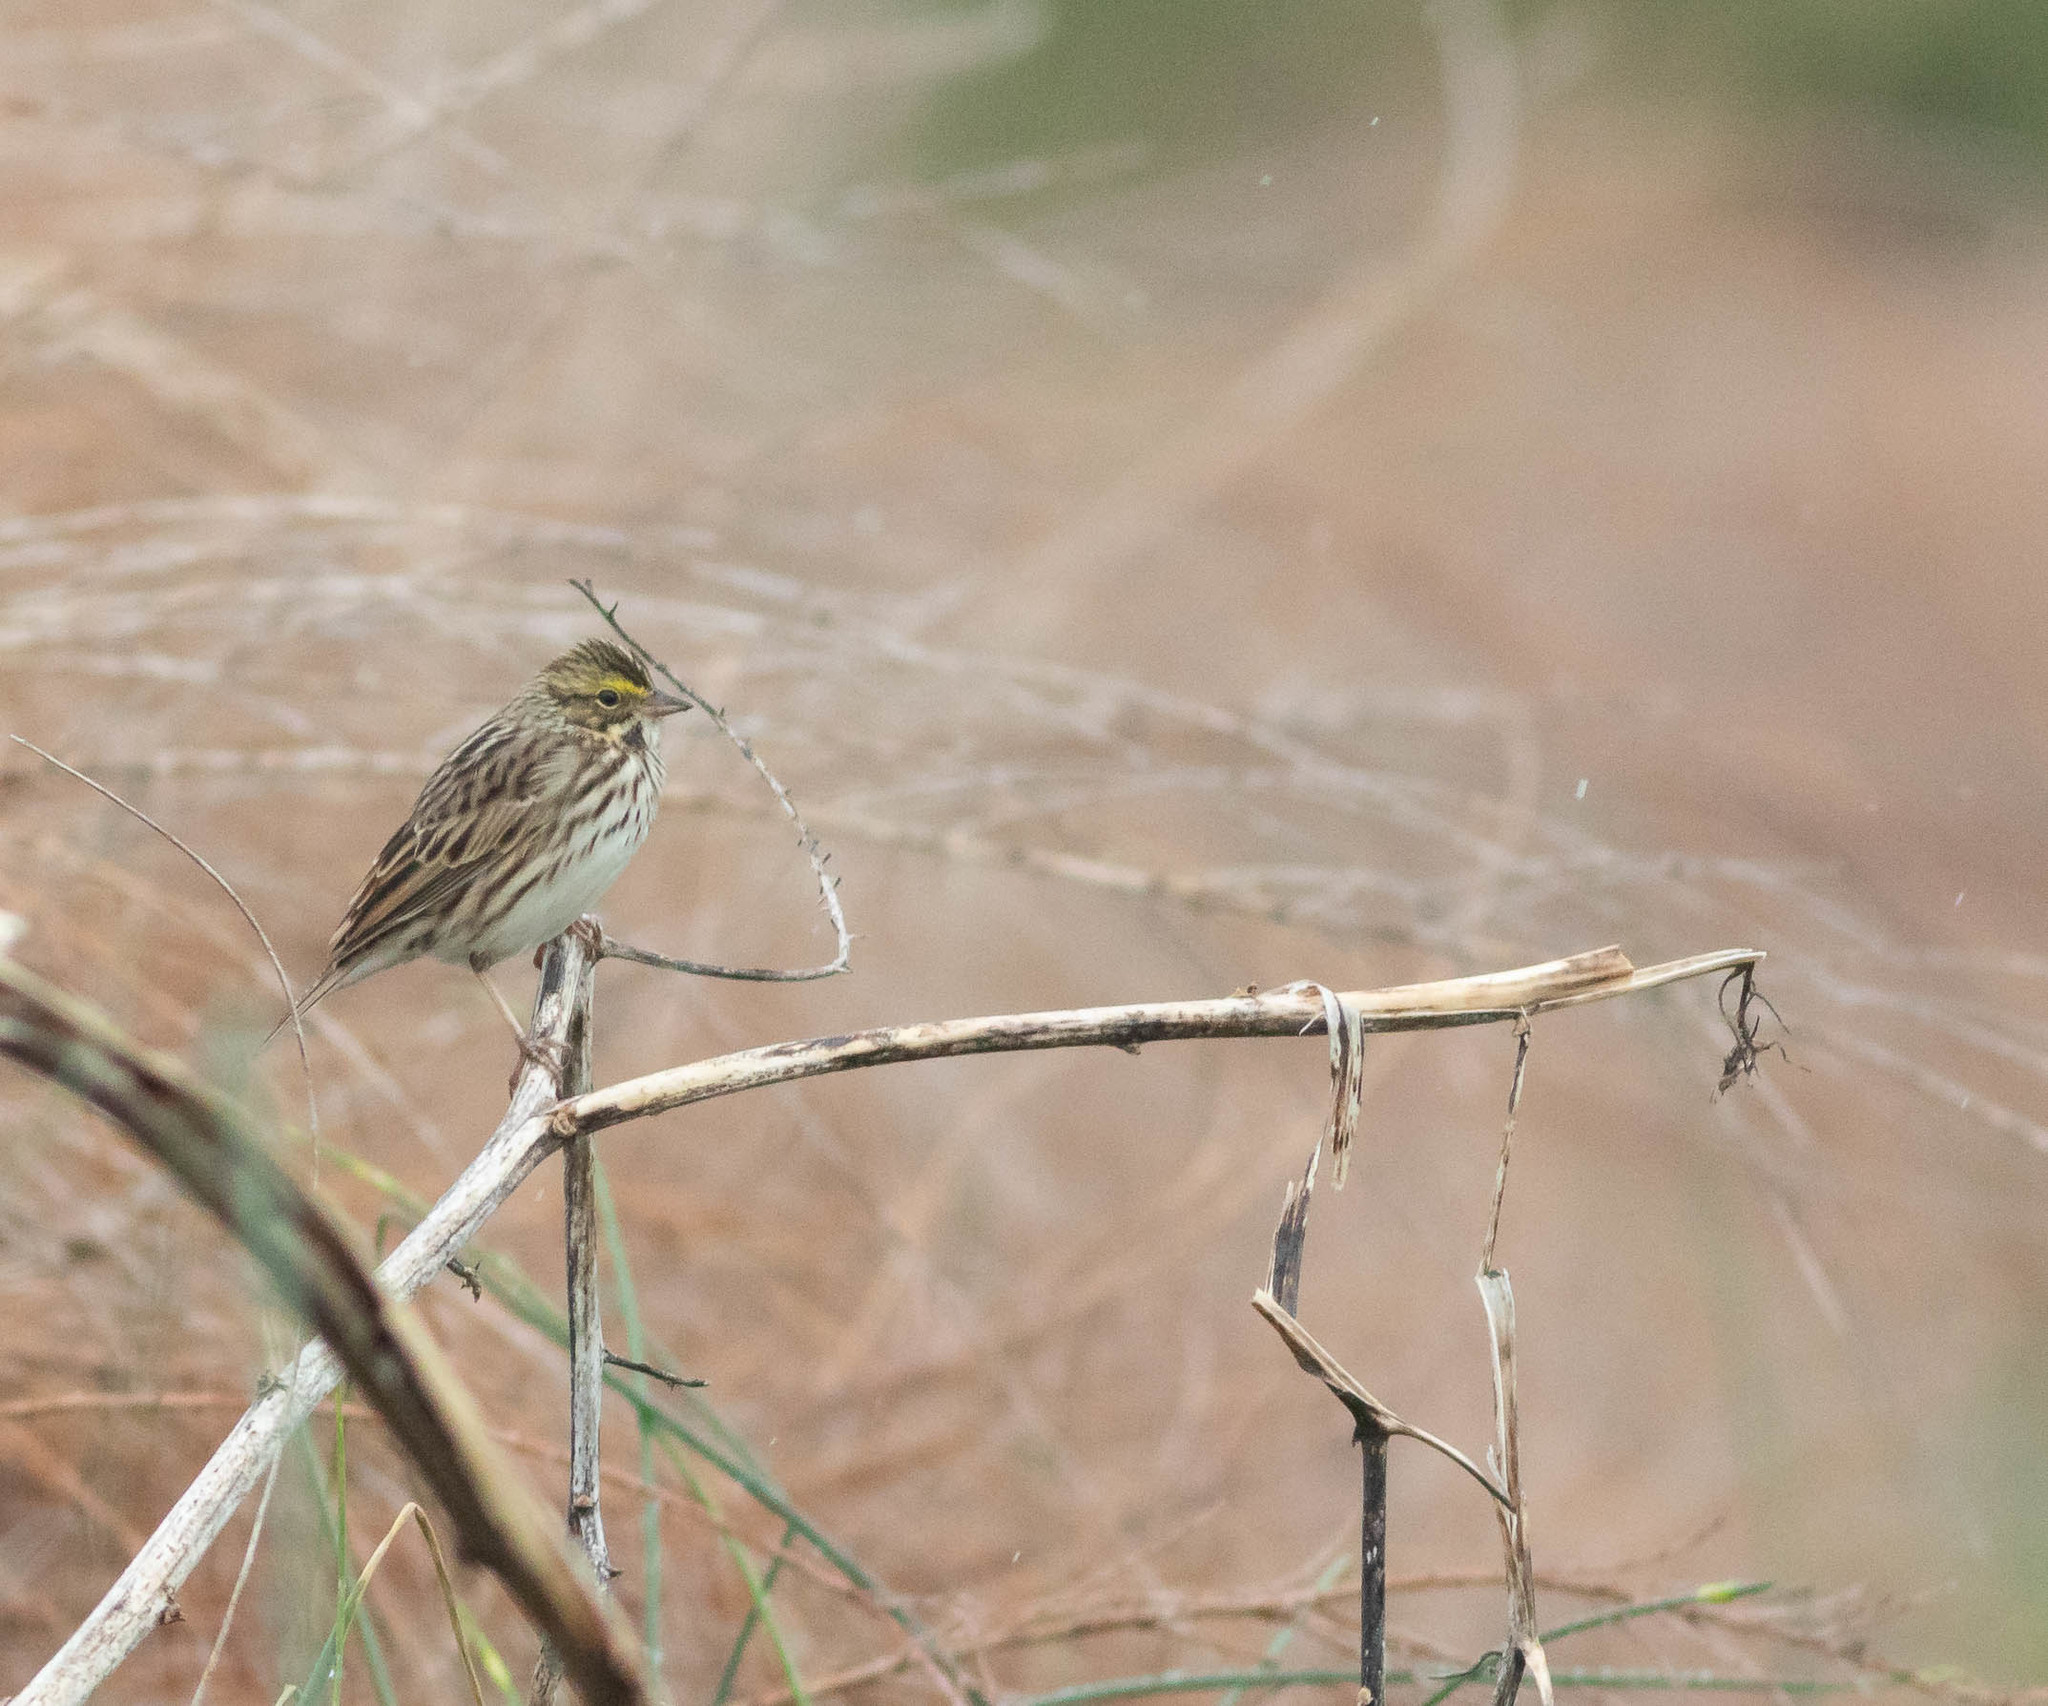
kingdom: Animalia
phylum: Chordata
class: Aves
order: Passeriformes
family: Passerellidae
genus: Passerculus
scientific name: Passerculus sandwichensis
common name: Savannah sparrow
